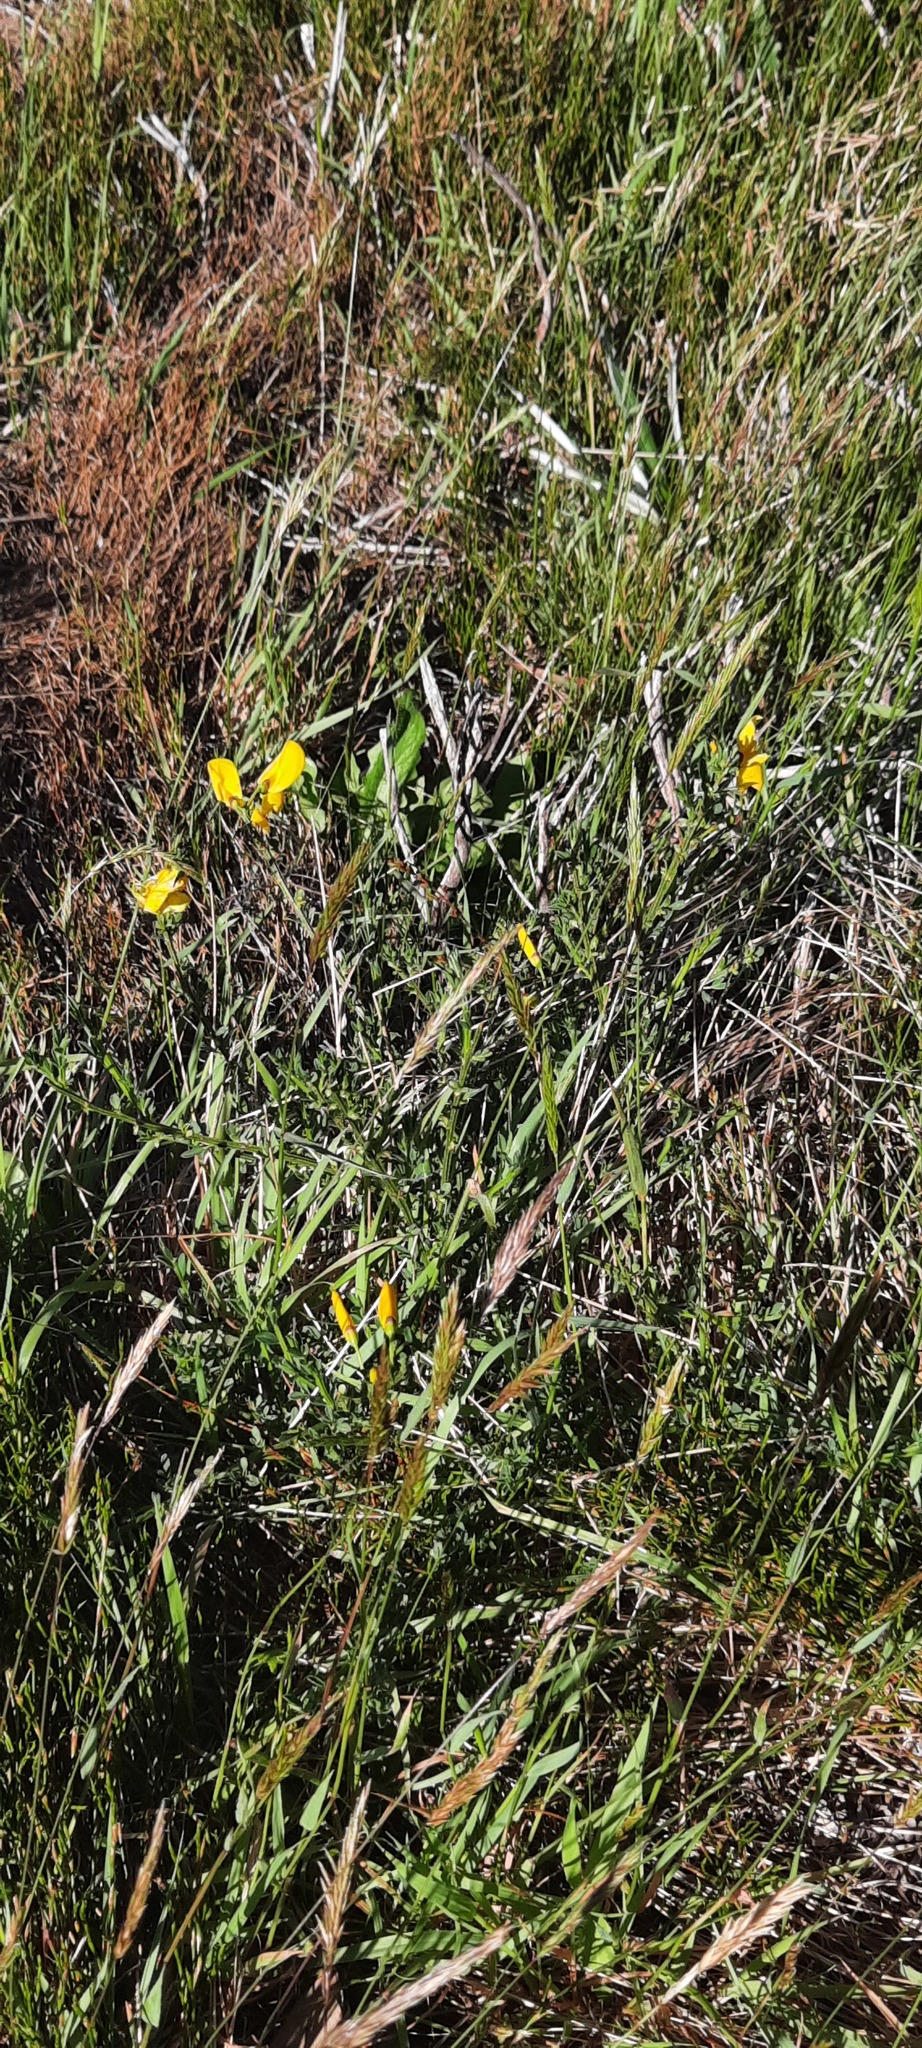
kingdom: Plantae
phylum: Tracheophyta
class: Magnoliopsida
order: Fabales
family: Fabaceae
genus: Cytisus
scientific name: Cytisus scoparius
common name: Scotch broom
